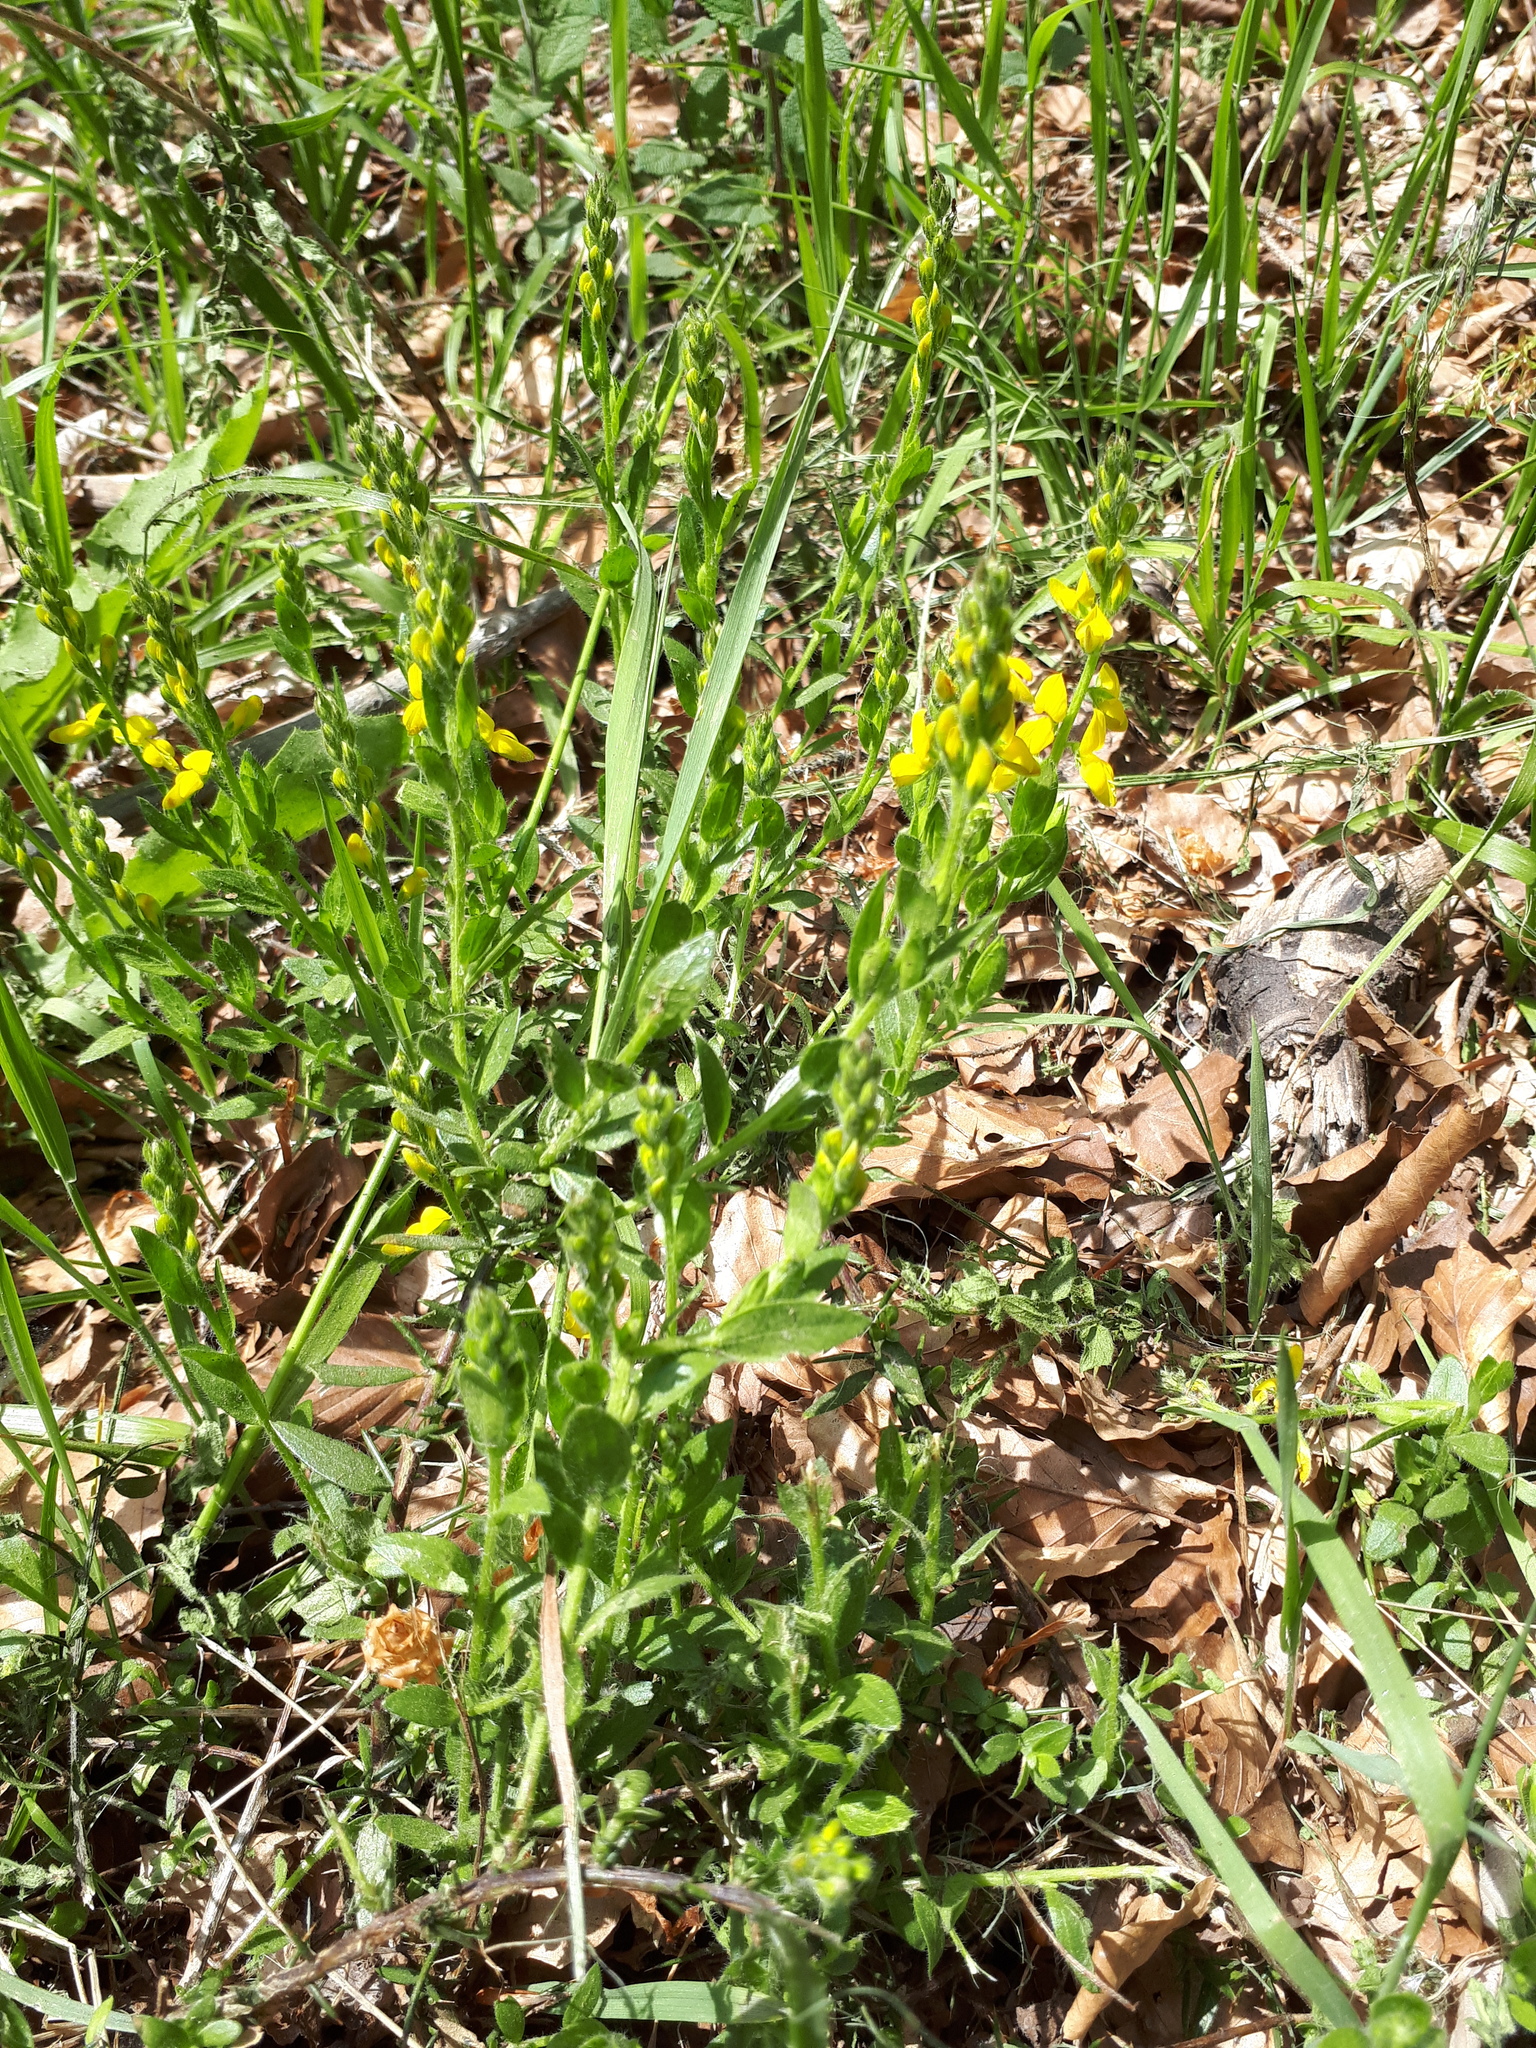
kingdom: Plantae
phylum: Tracheophyta
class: Magnoliopsida
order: Fabales
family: Fabaceae
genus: Genista
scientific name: Genista germanica
